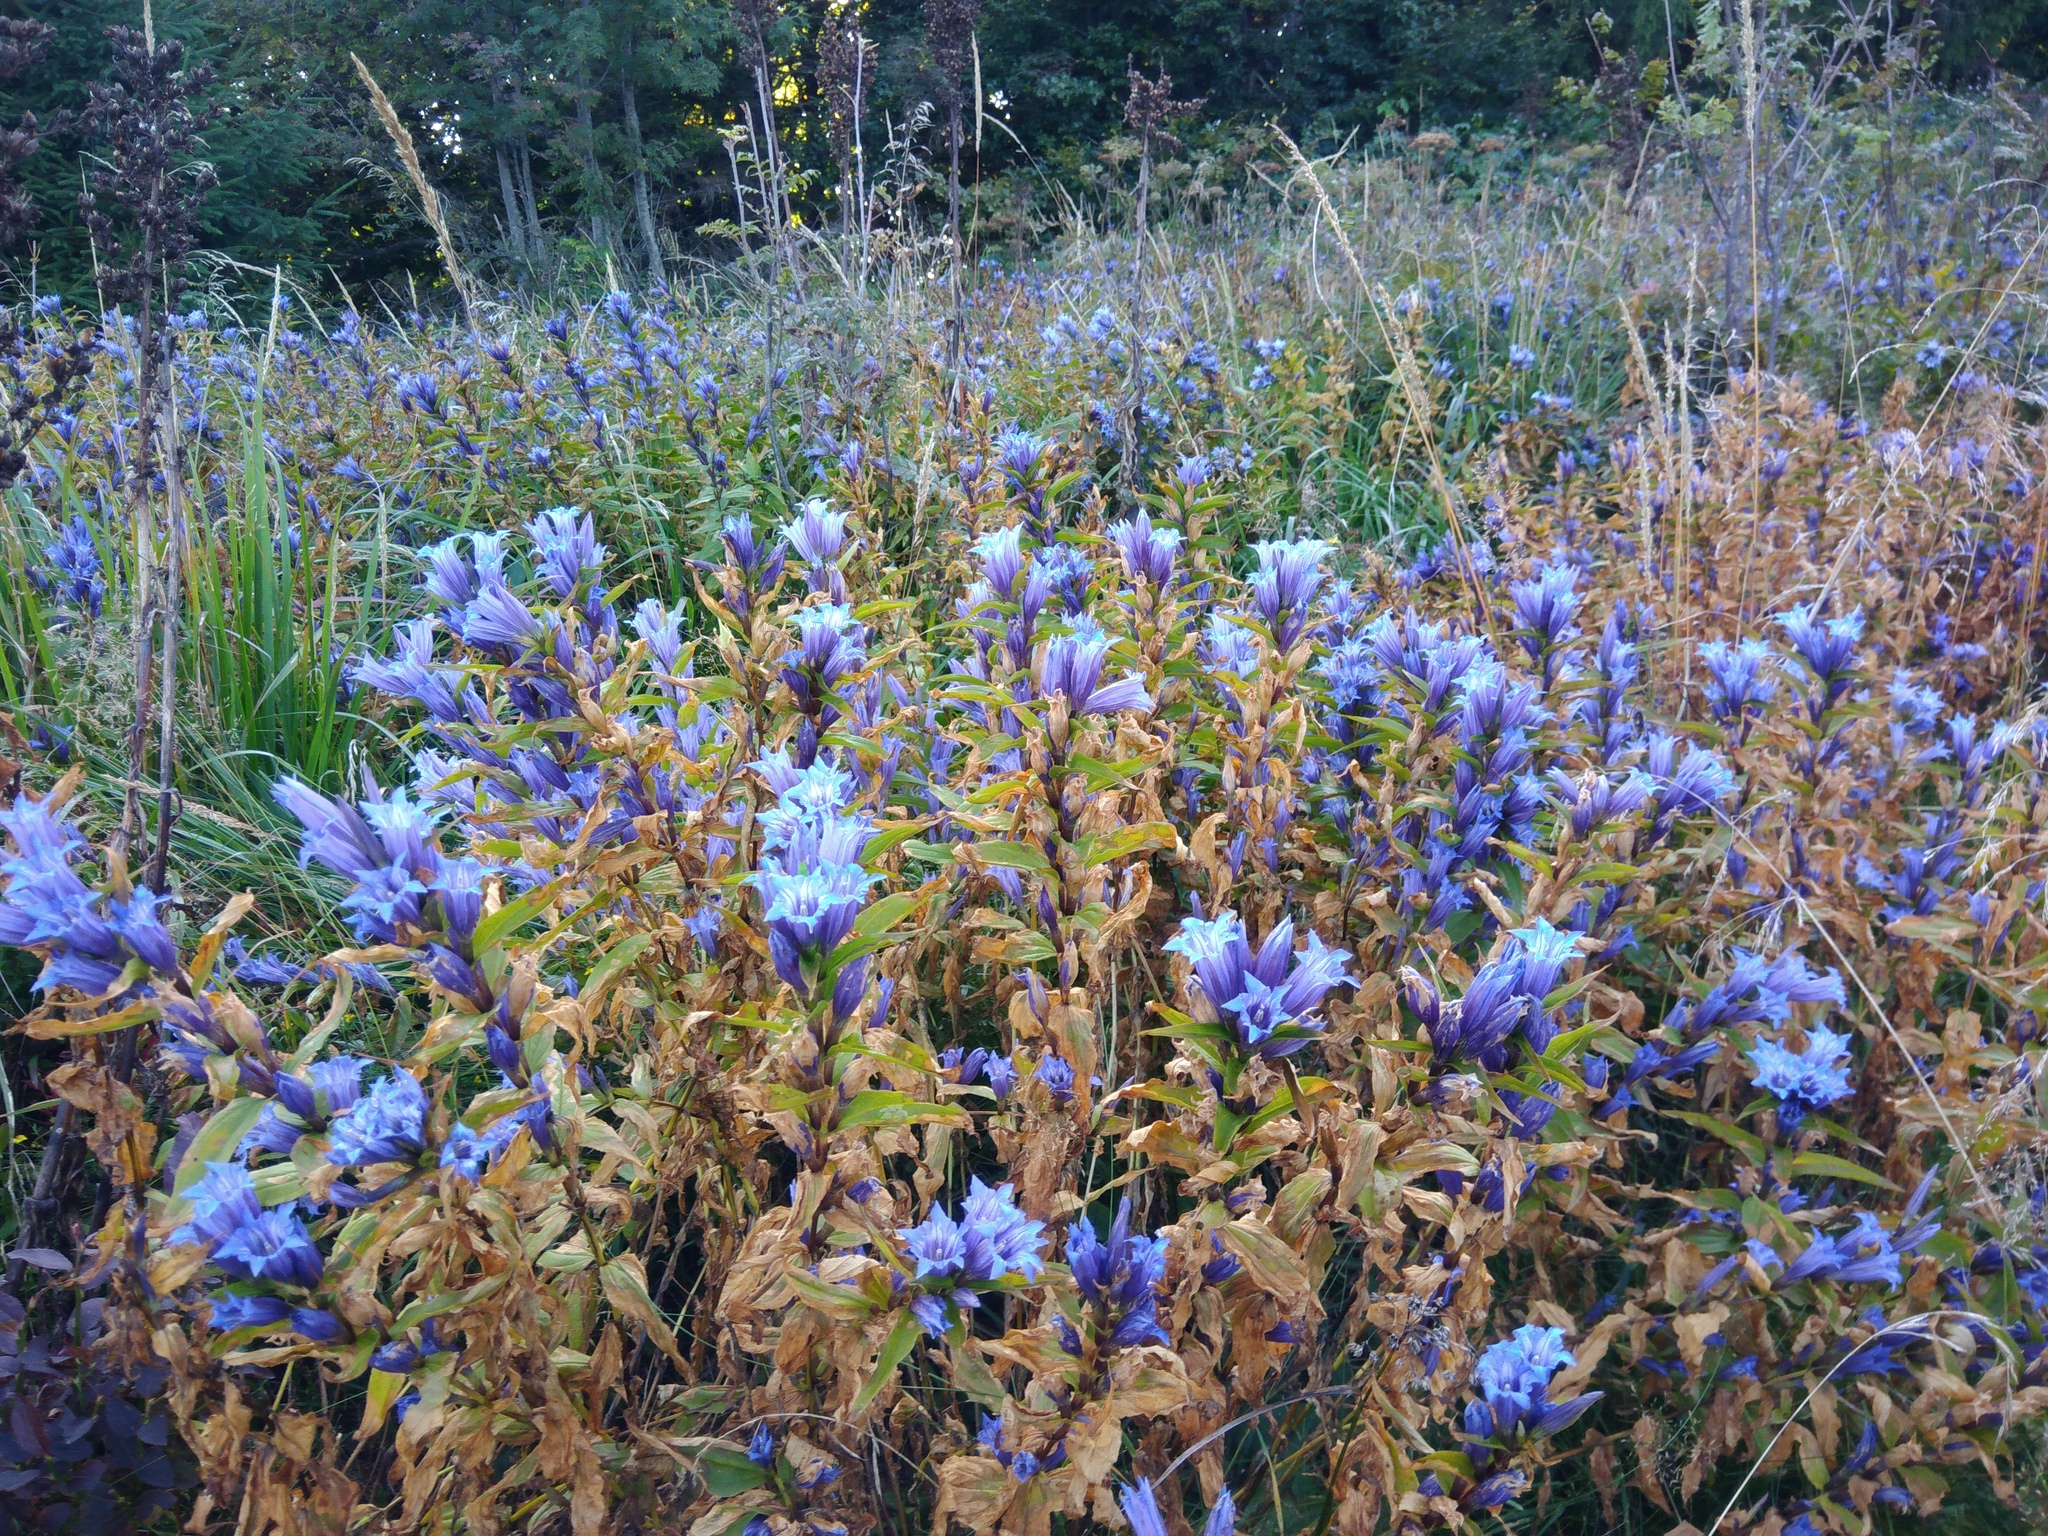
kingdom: Plantae
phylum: Tracheophyta
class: Magnoliopsida
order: Gentianales
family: Gentianaceae
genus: Gentiana
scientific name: Gentiana asclepiadea
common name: Willow gentian
